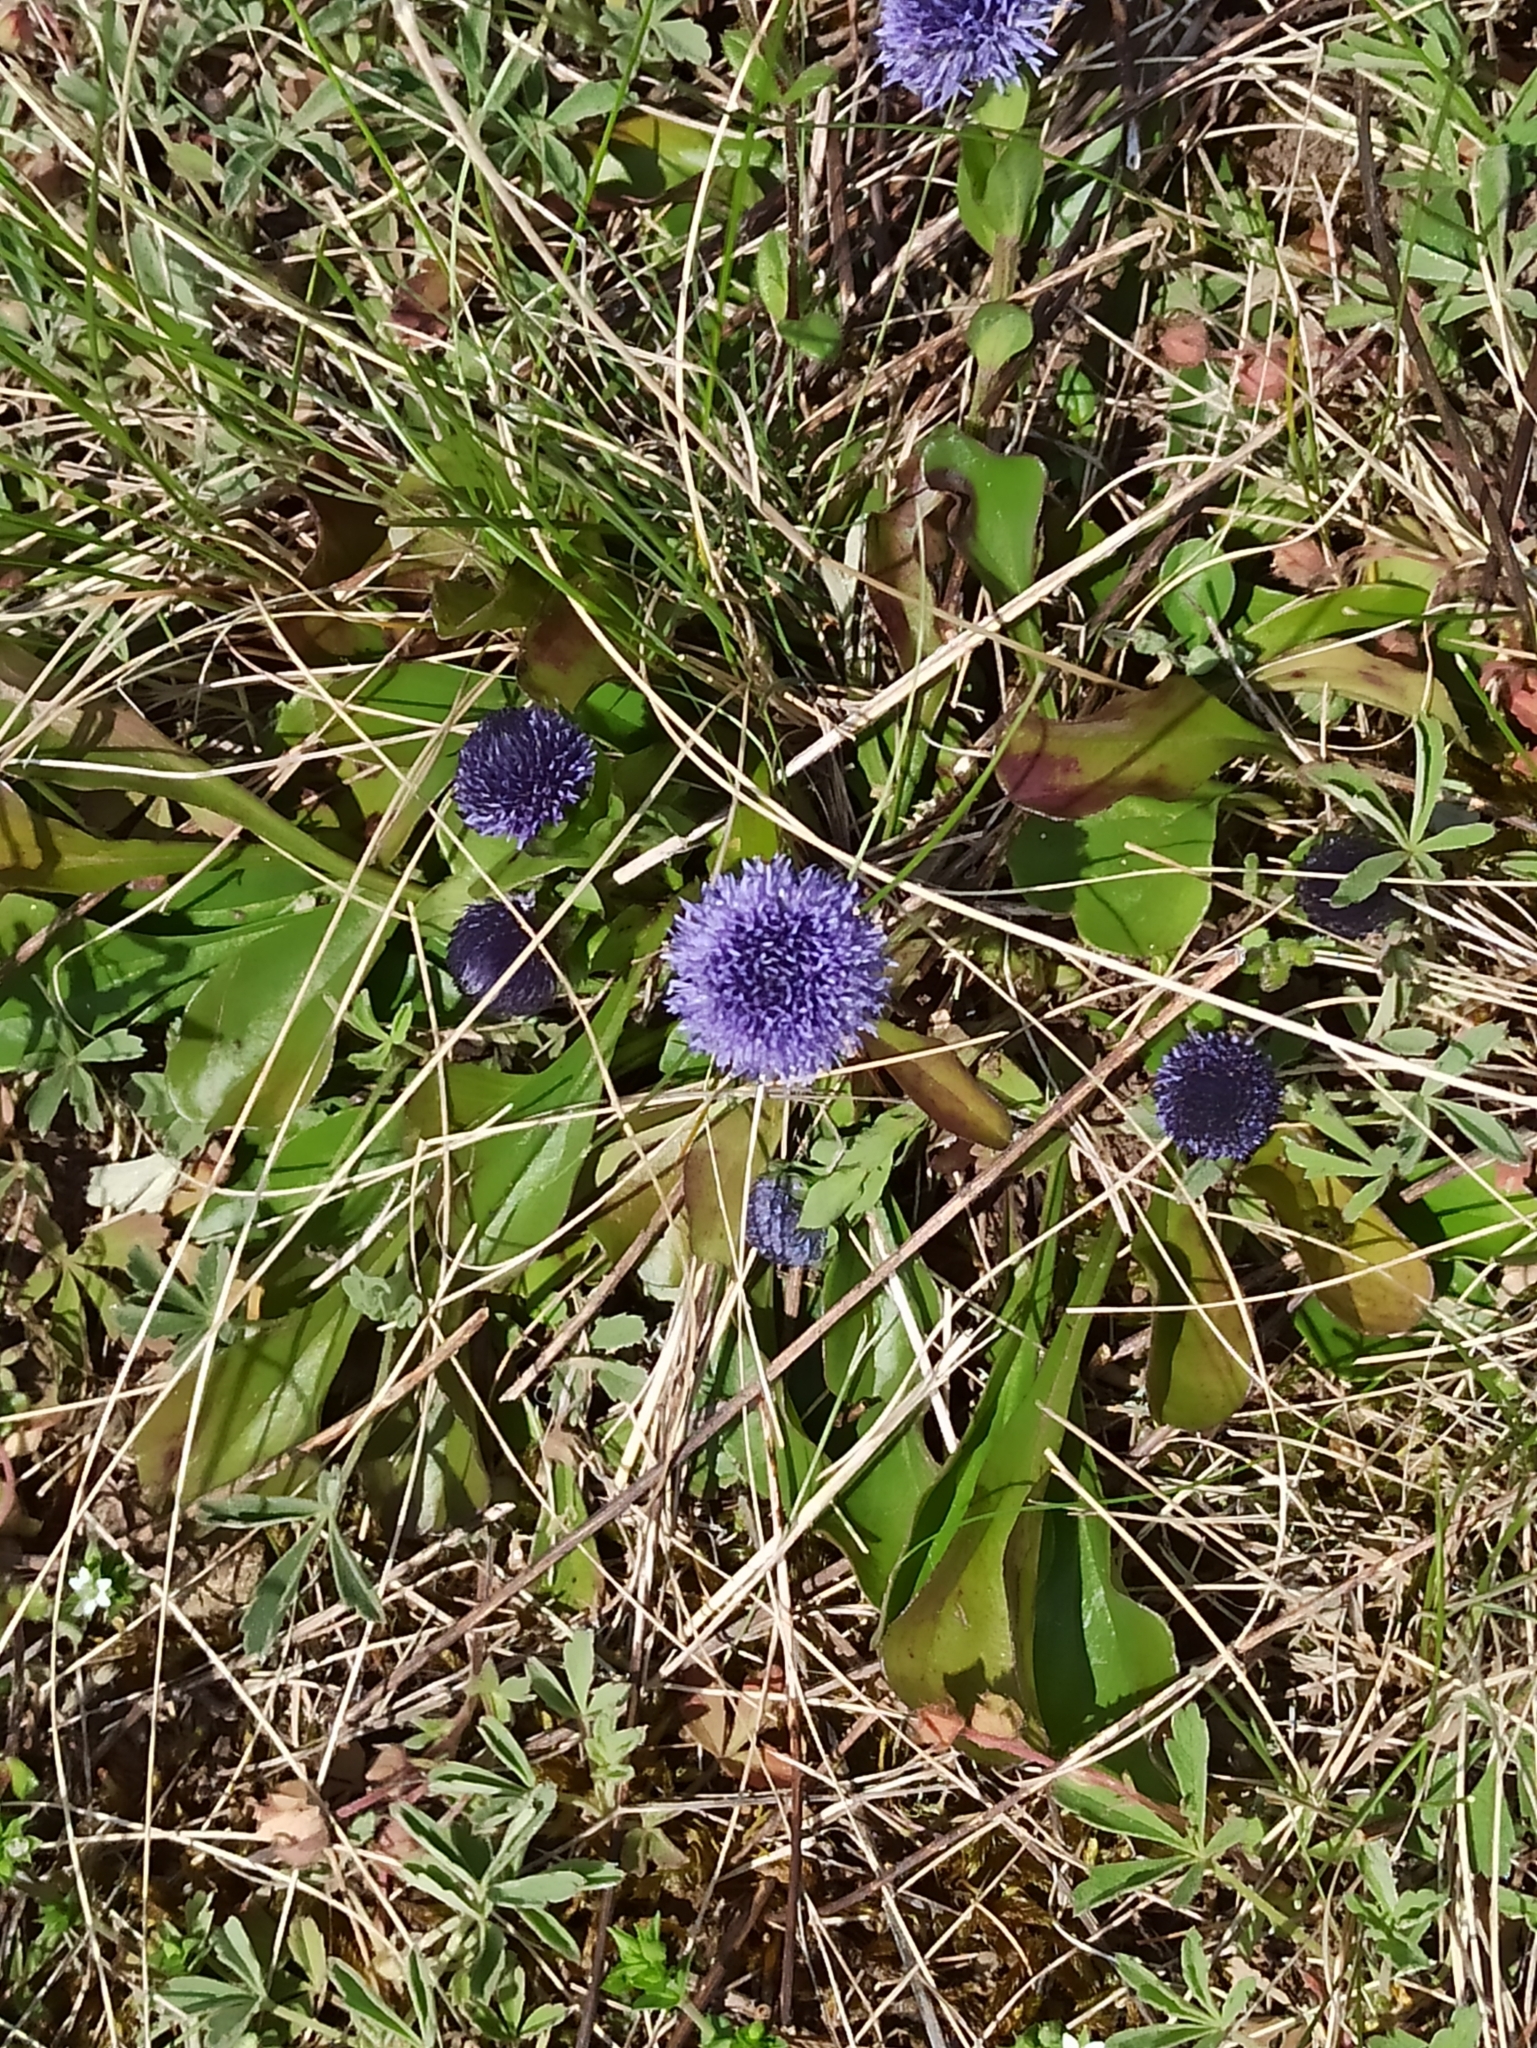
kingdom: Plantae
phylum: Tracheophyta
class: Magnoliopsida
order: Lamiales
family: Plantaginaceae
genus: Globularia
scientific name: Globularia bisnagarica
